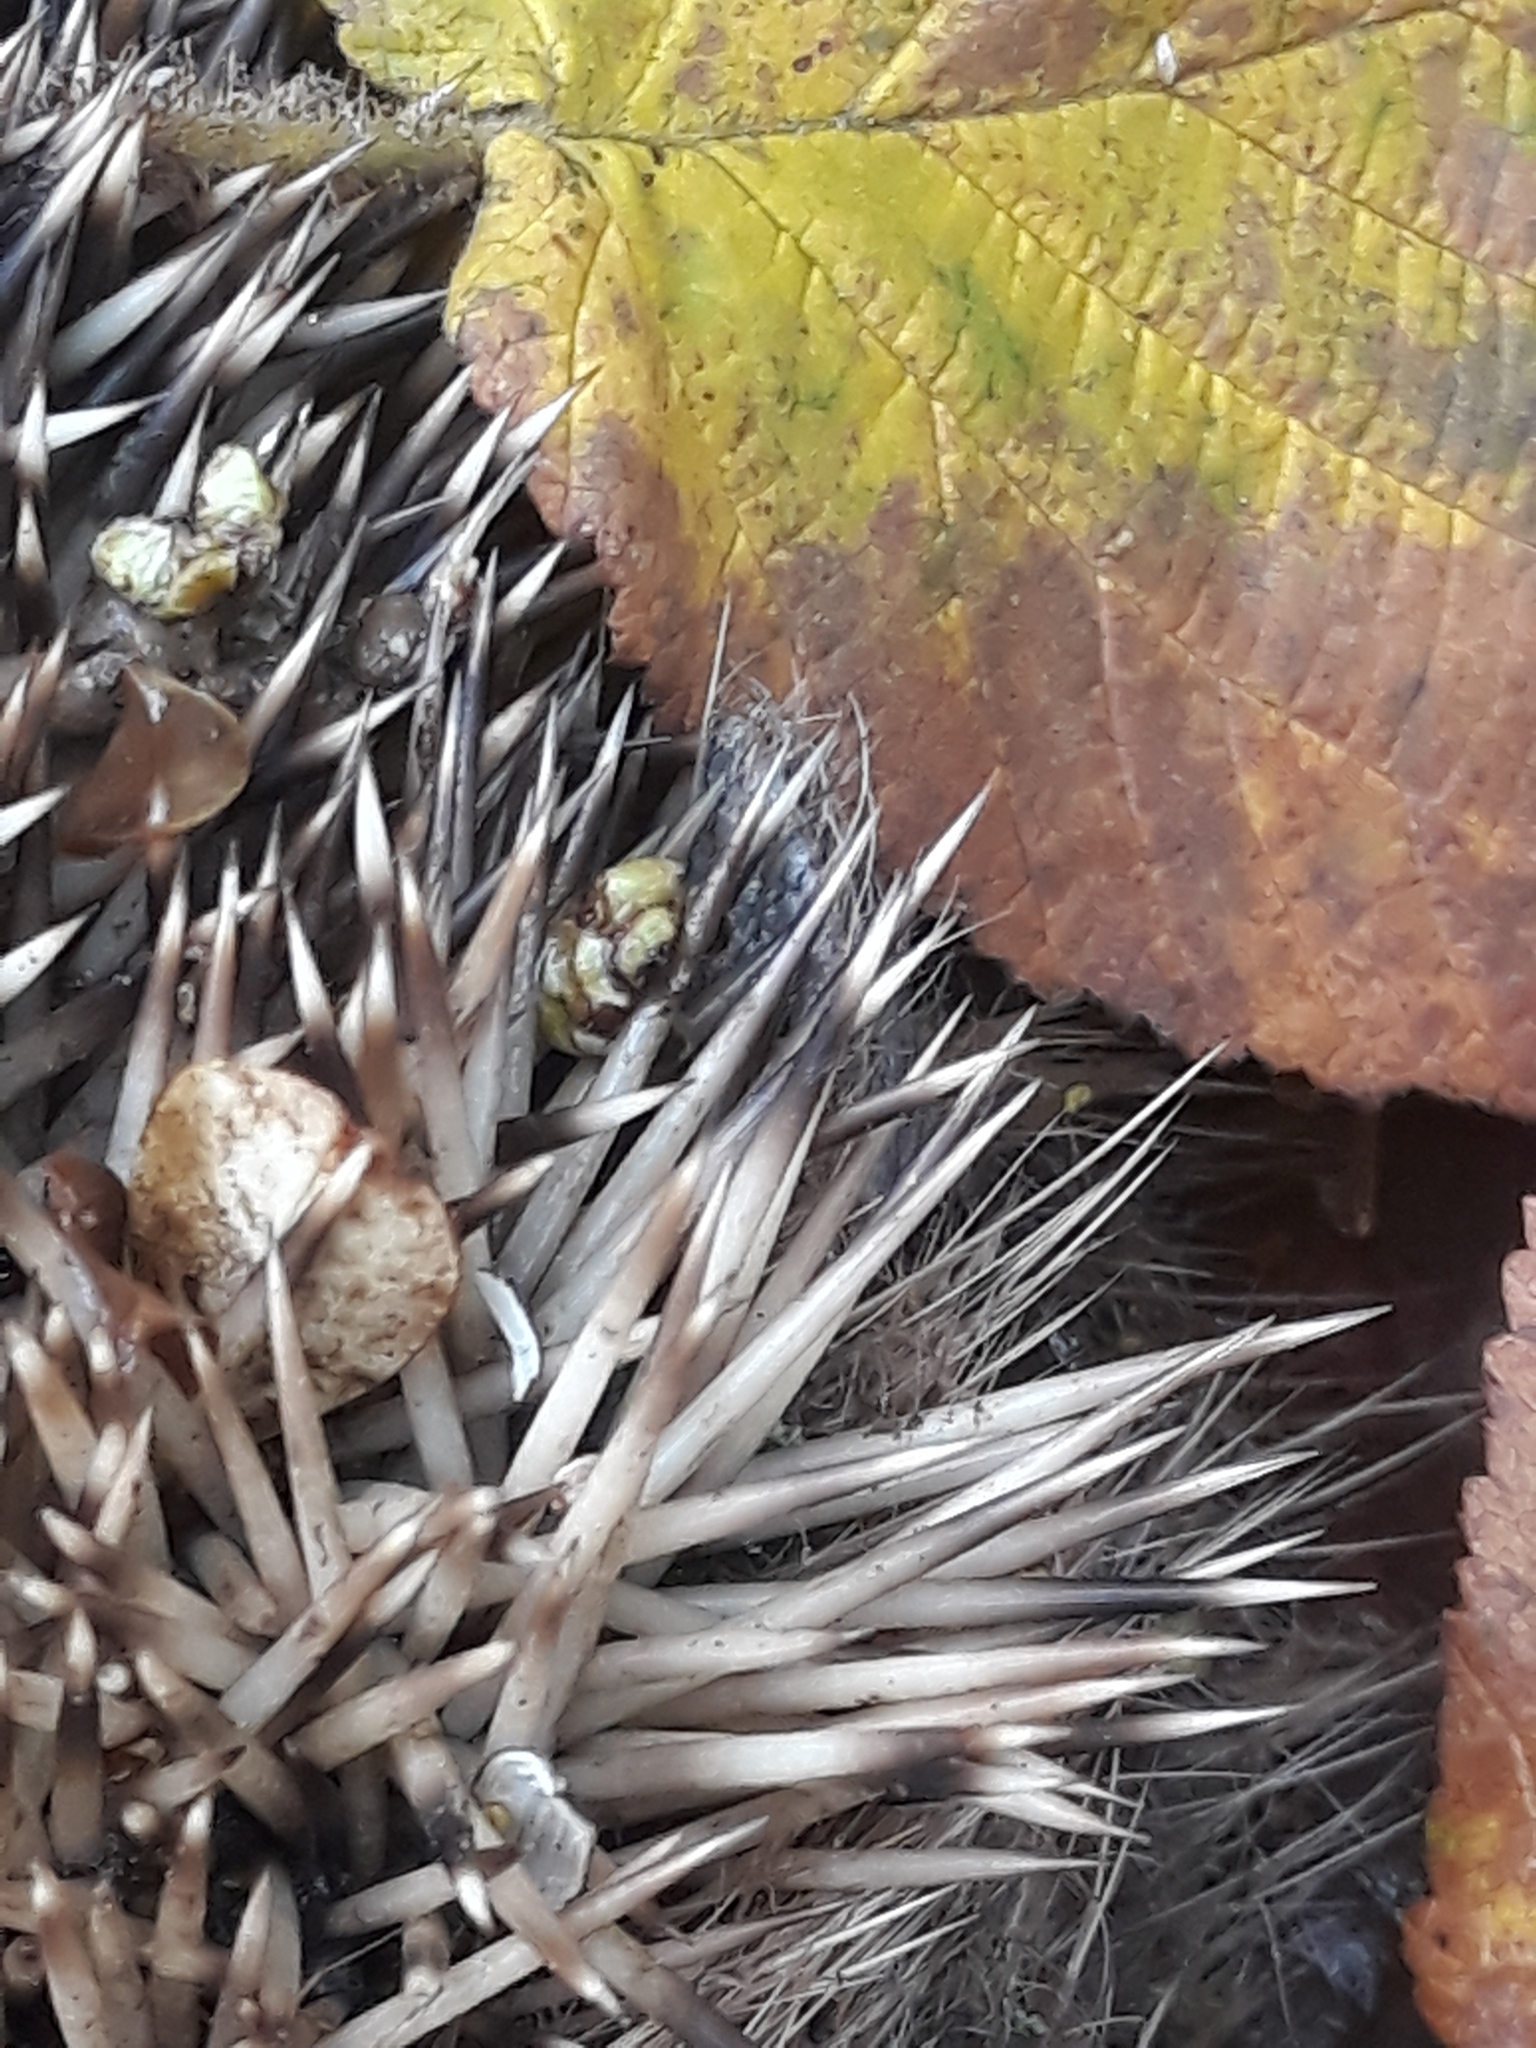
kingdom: Animalia
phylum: Chordata
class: Mammalia
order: Erinaceomorpha
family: Erinaceidae
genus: Erinaceus
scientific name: Erinaceus europaeus
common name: West european hedgehog
